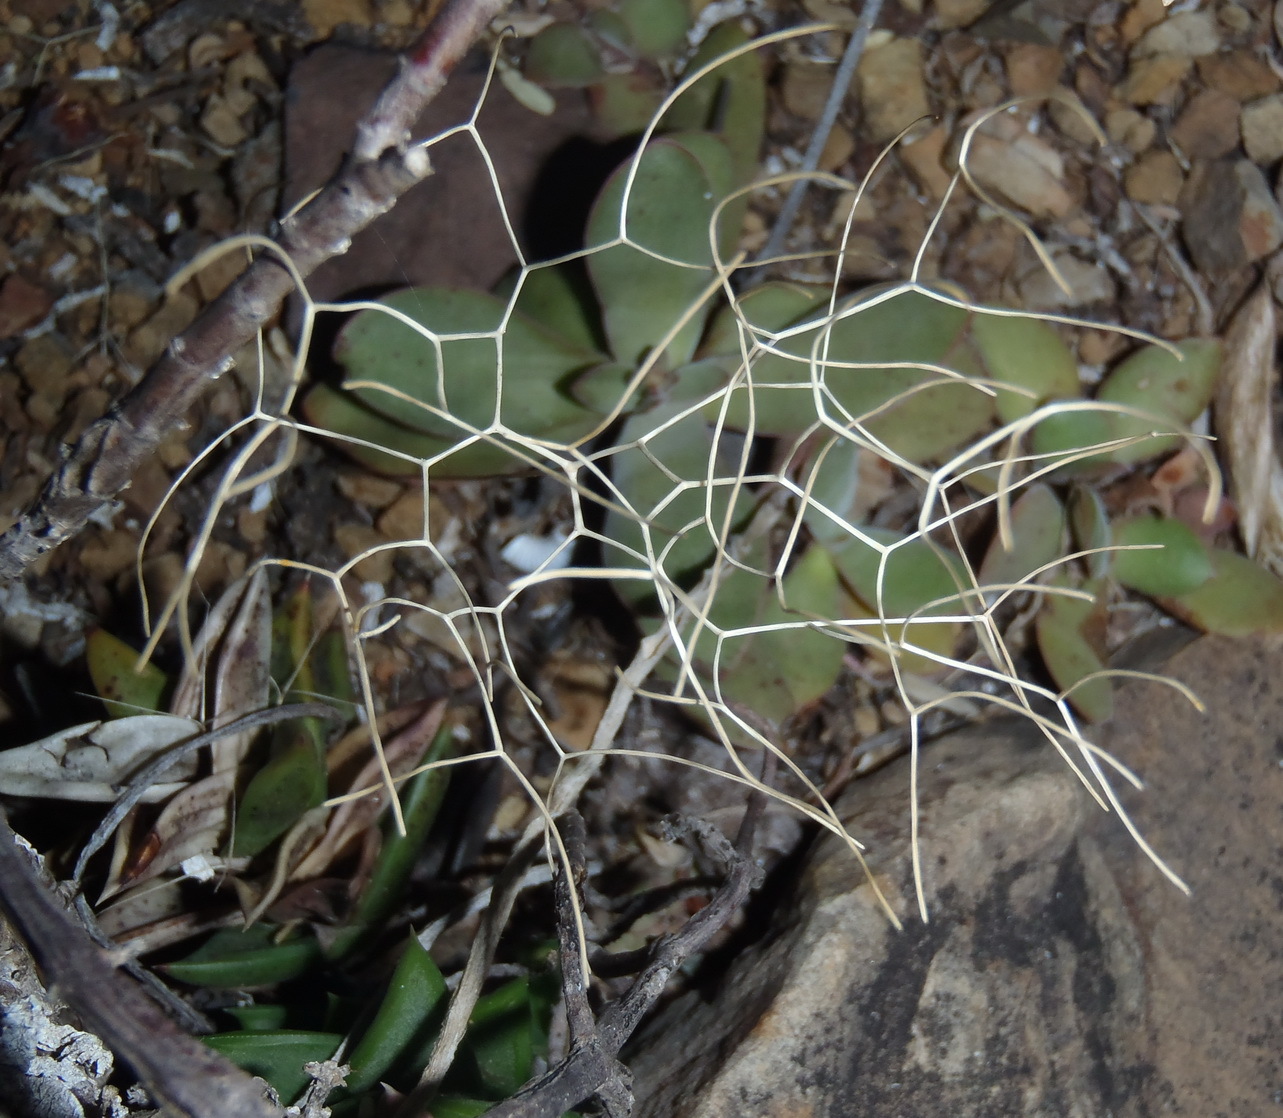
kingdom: Plantae
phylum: Tracheophyta
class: Liliopsida
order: Asparagales
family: Asparagaceae
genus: Drimia
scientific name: Drimia intricata
